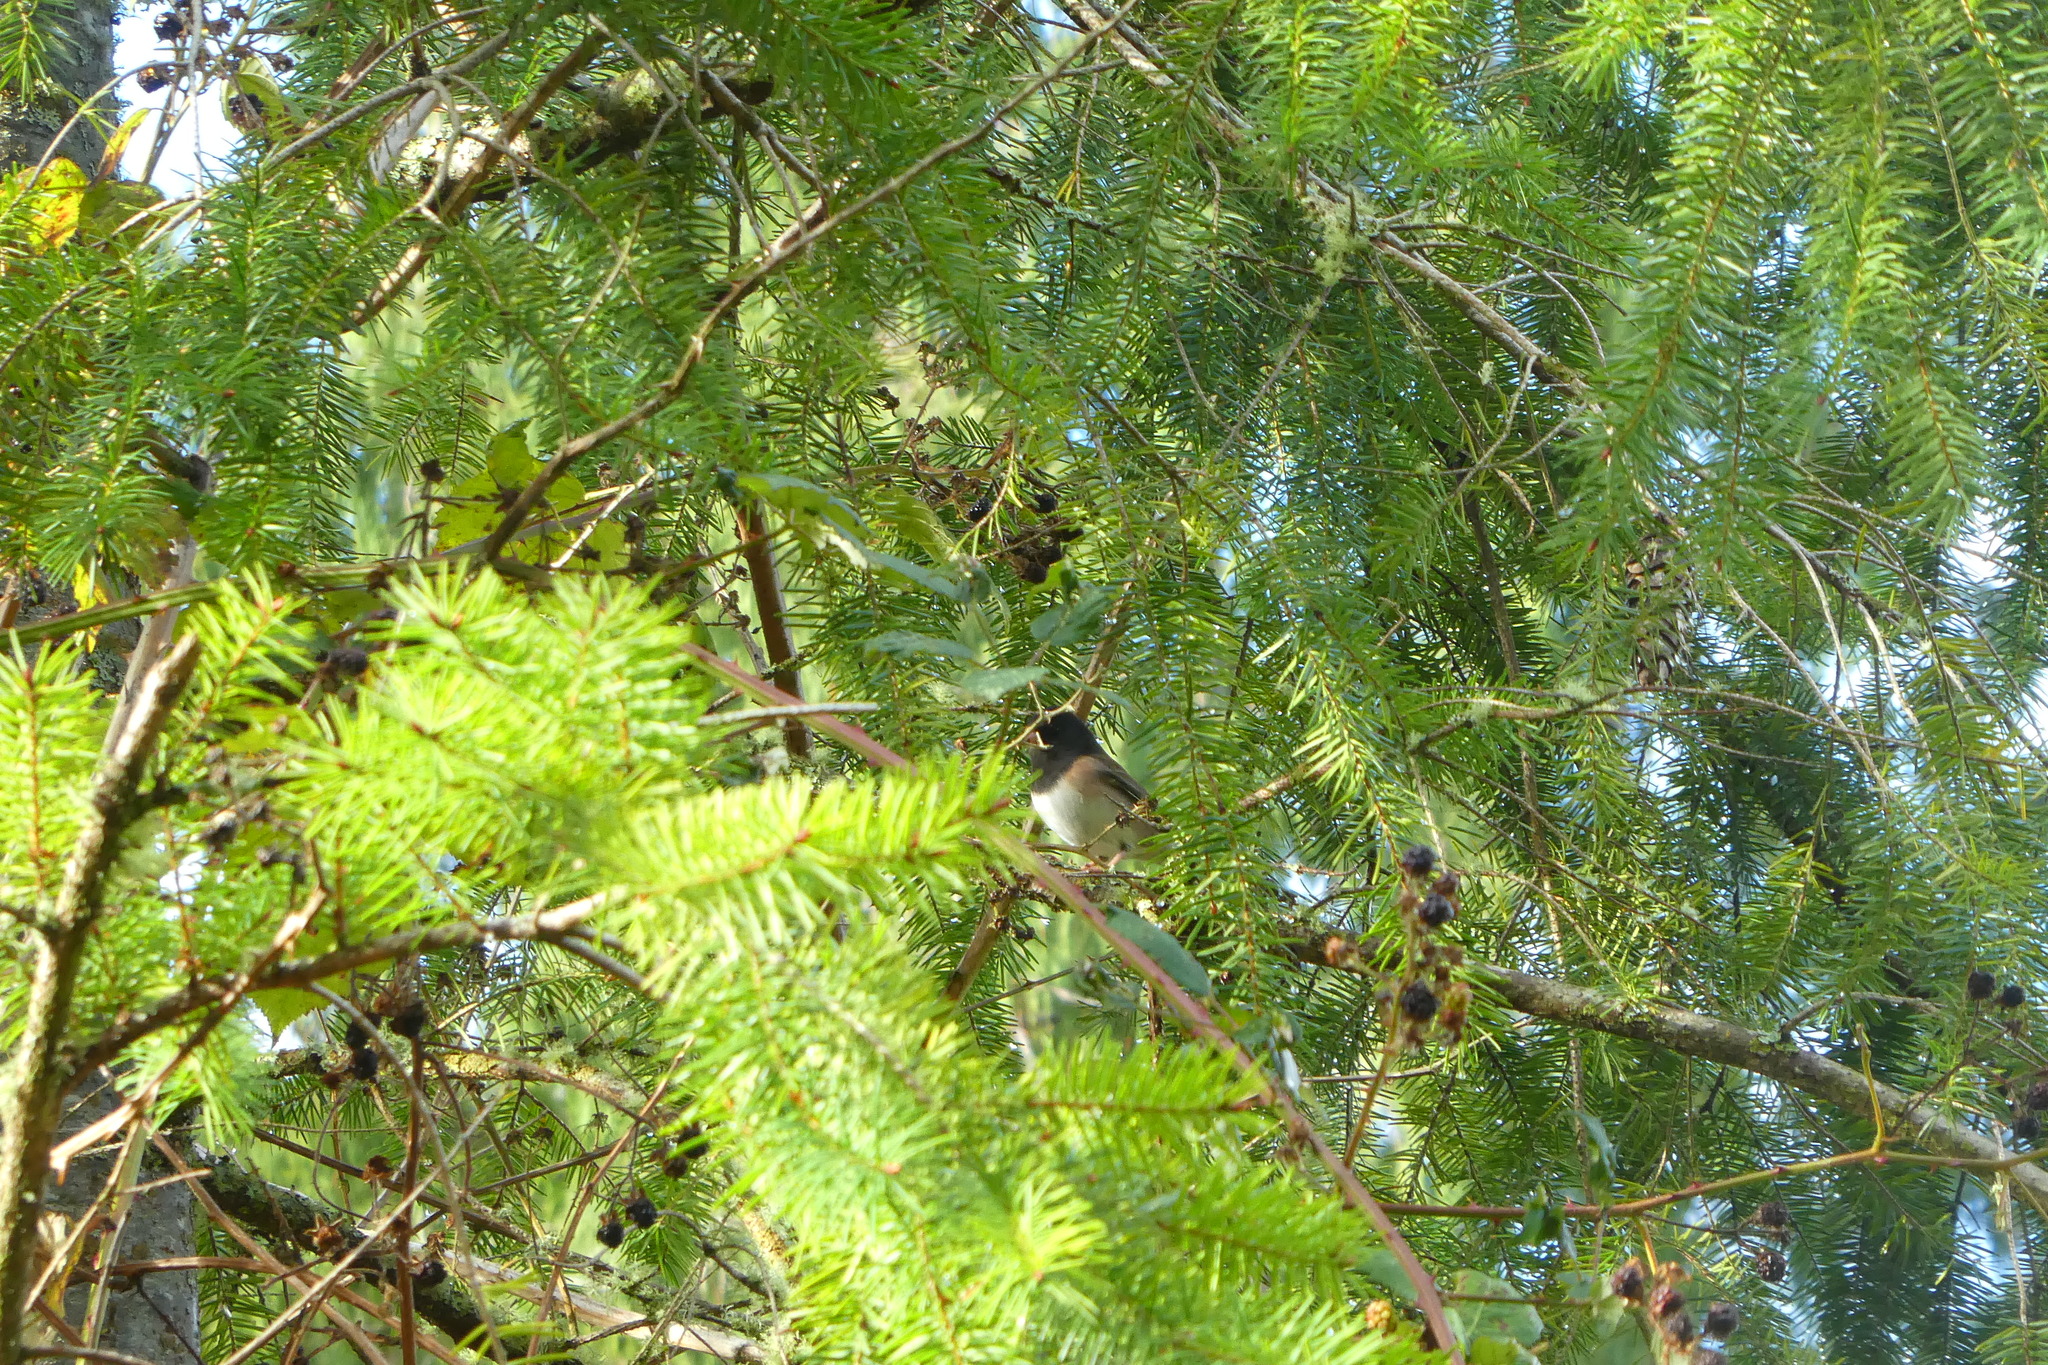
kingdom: Animalia
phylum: Chordata
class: Aves
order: Passeriformes
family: Passerellidae
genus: Junco
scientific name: Junco hyemalis
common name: Dark-eyed junco
